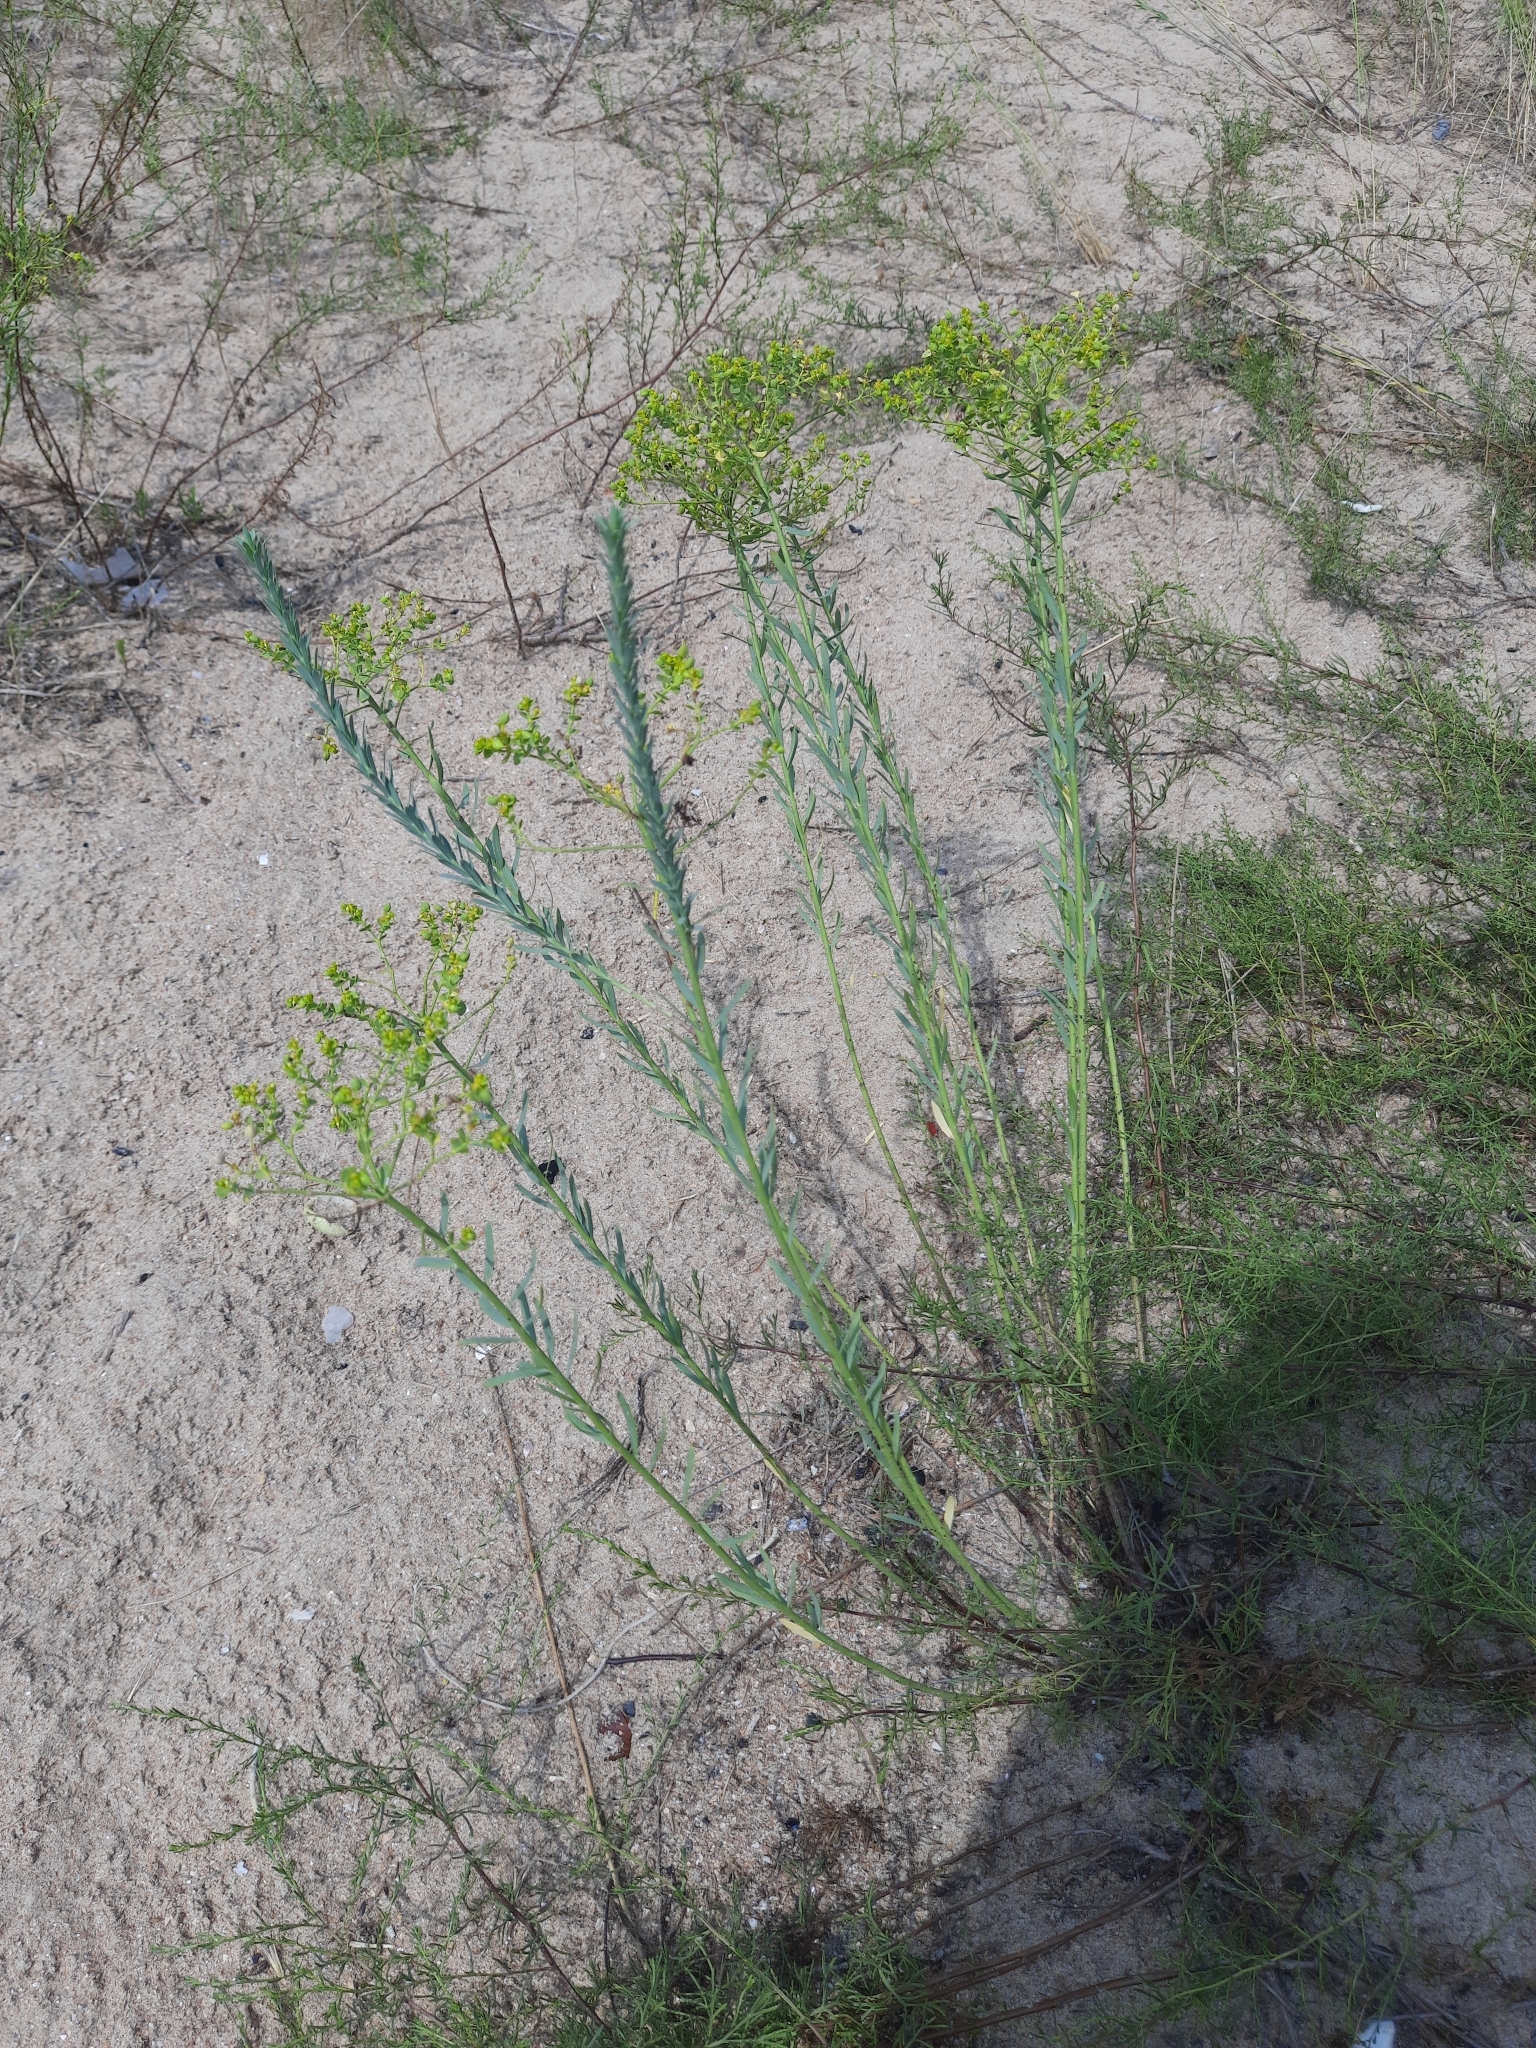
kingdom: Plantae
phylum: Tracheophyta
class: Magnoliopsida
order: Malpighiales
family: Euphorbiaceae
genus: Euphorbia
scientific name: Euphorbia seguieriana
